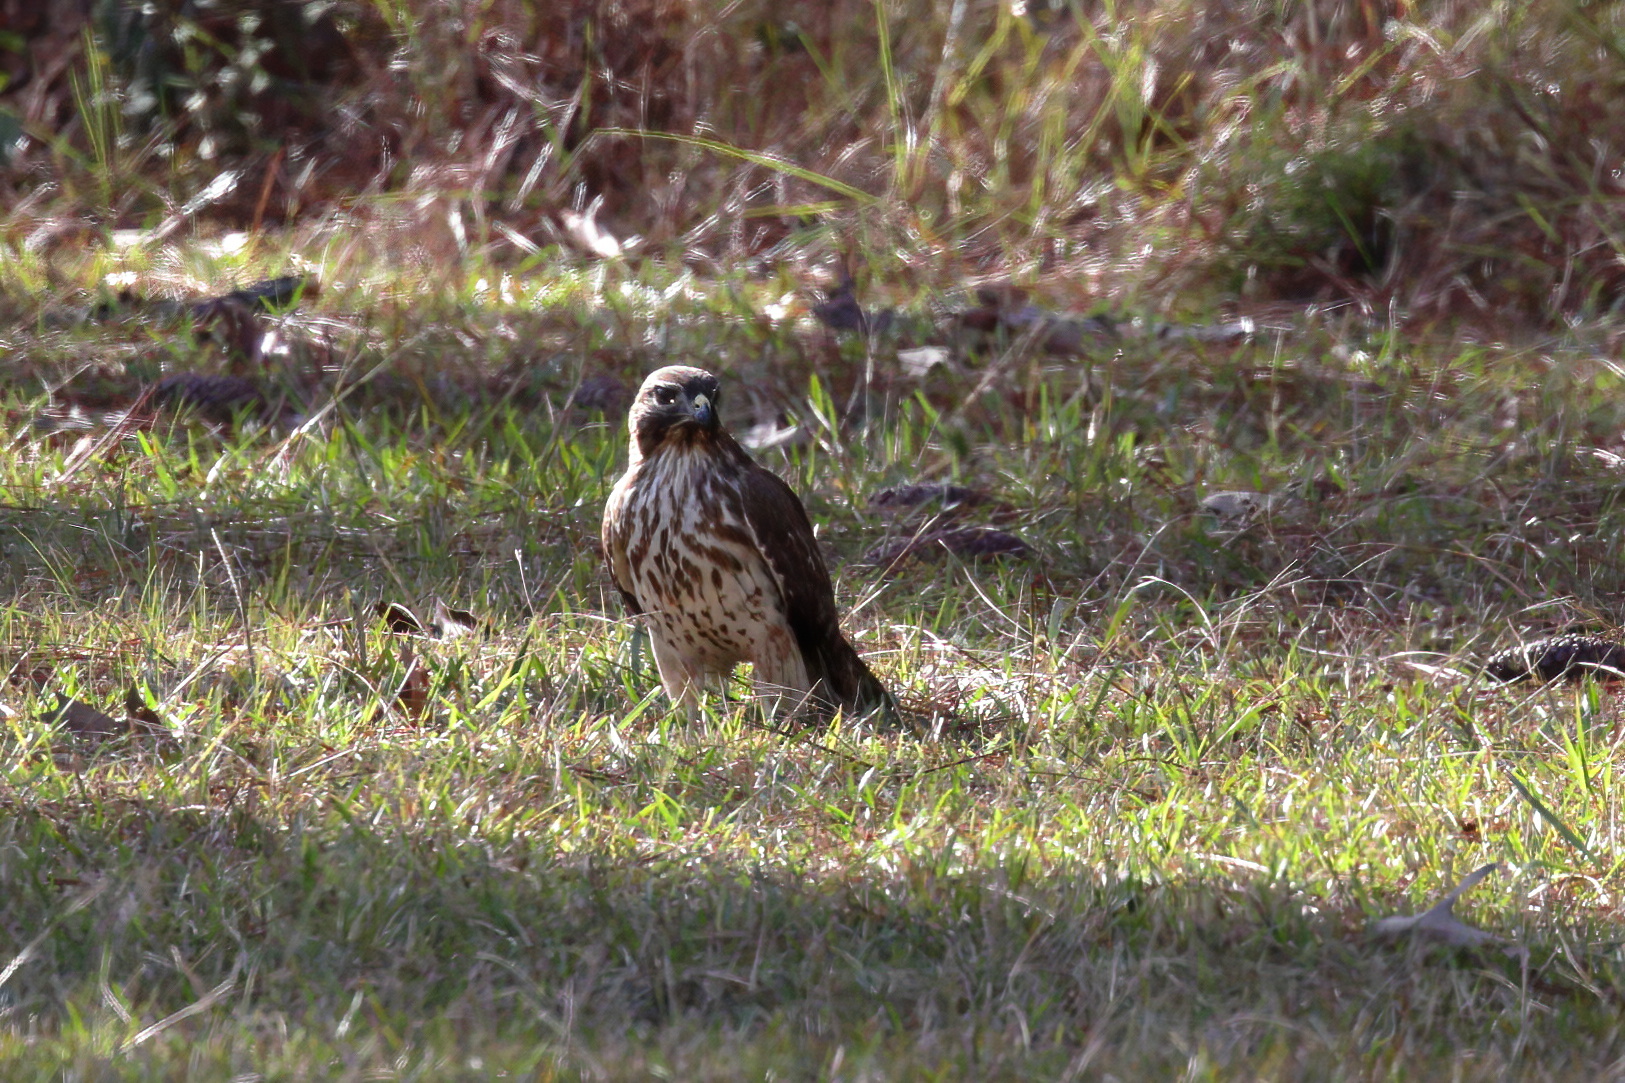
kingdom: Animalia
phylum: Chordata
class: Aves
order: Accipitriformes
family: Accipitridae
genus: Buteo
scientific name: Buteo lineatus
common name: Red-shouldered hawk
